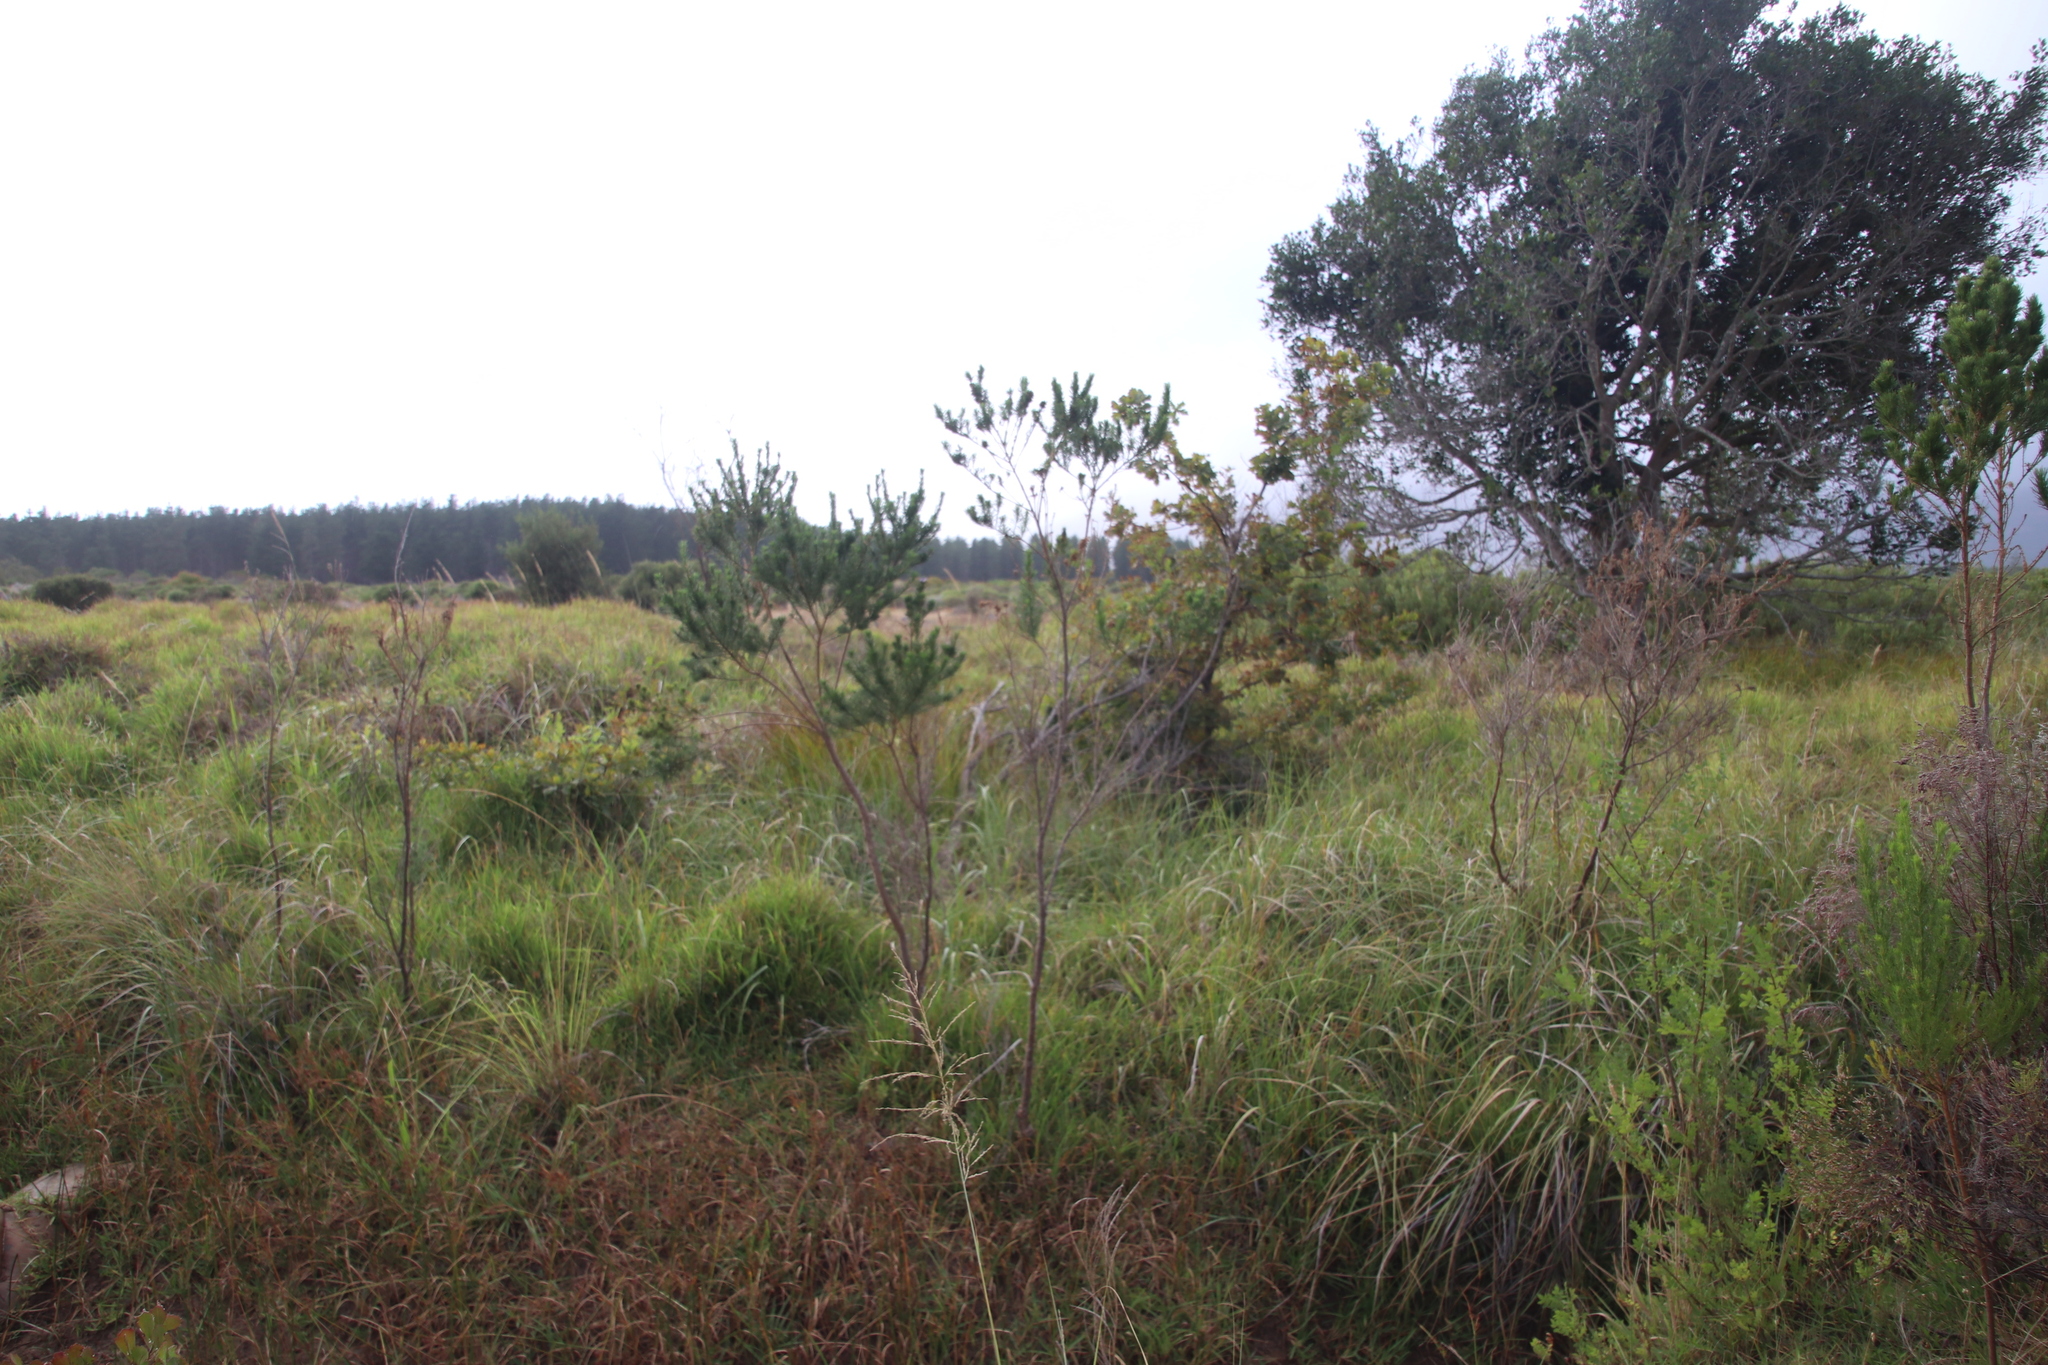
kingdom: Plantae
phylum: Tracheophyta
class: Magnoliopsida
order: Fabales
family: Fabaceae
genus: Psoralea
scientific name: Psoralea pinnata
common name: African scurfpea
